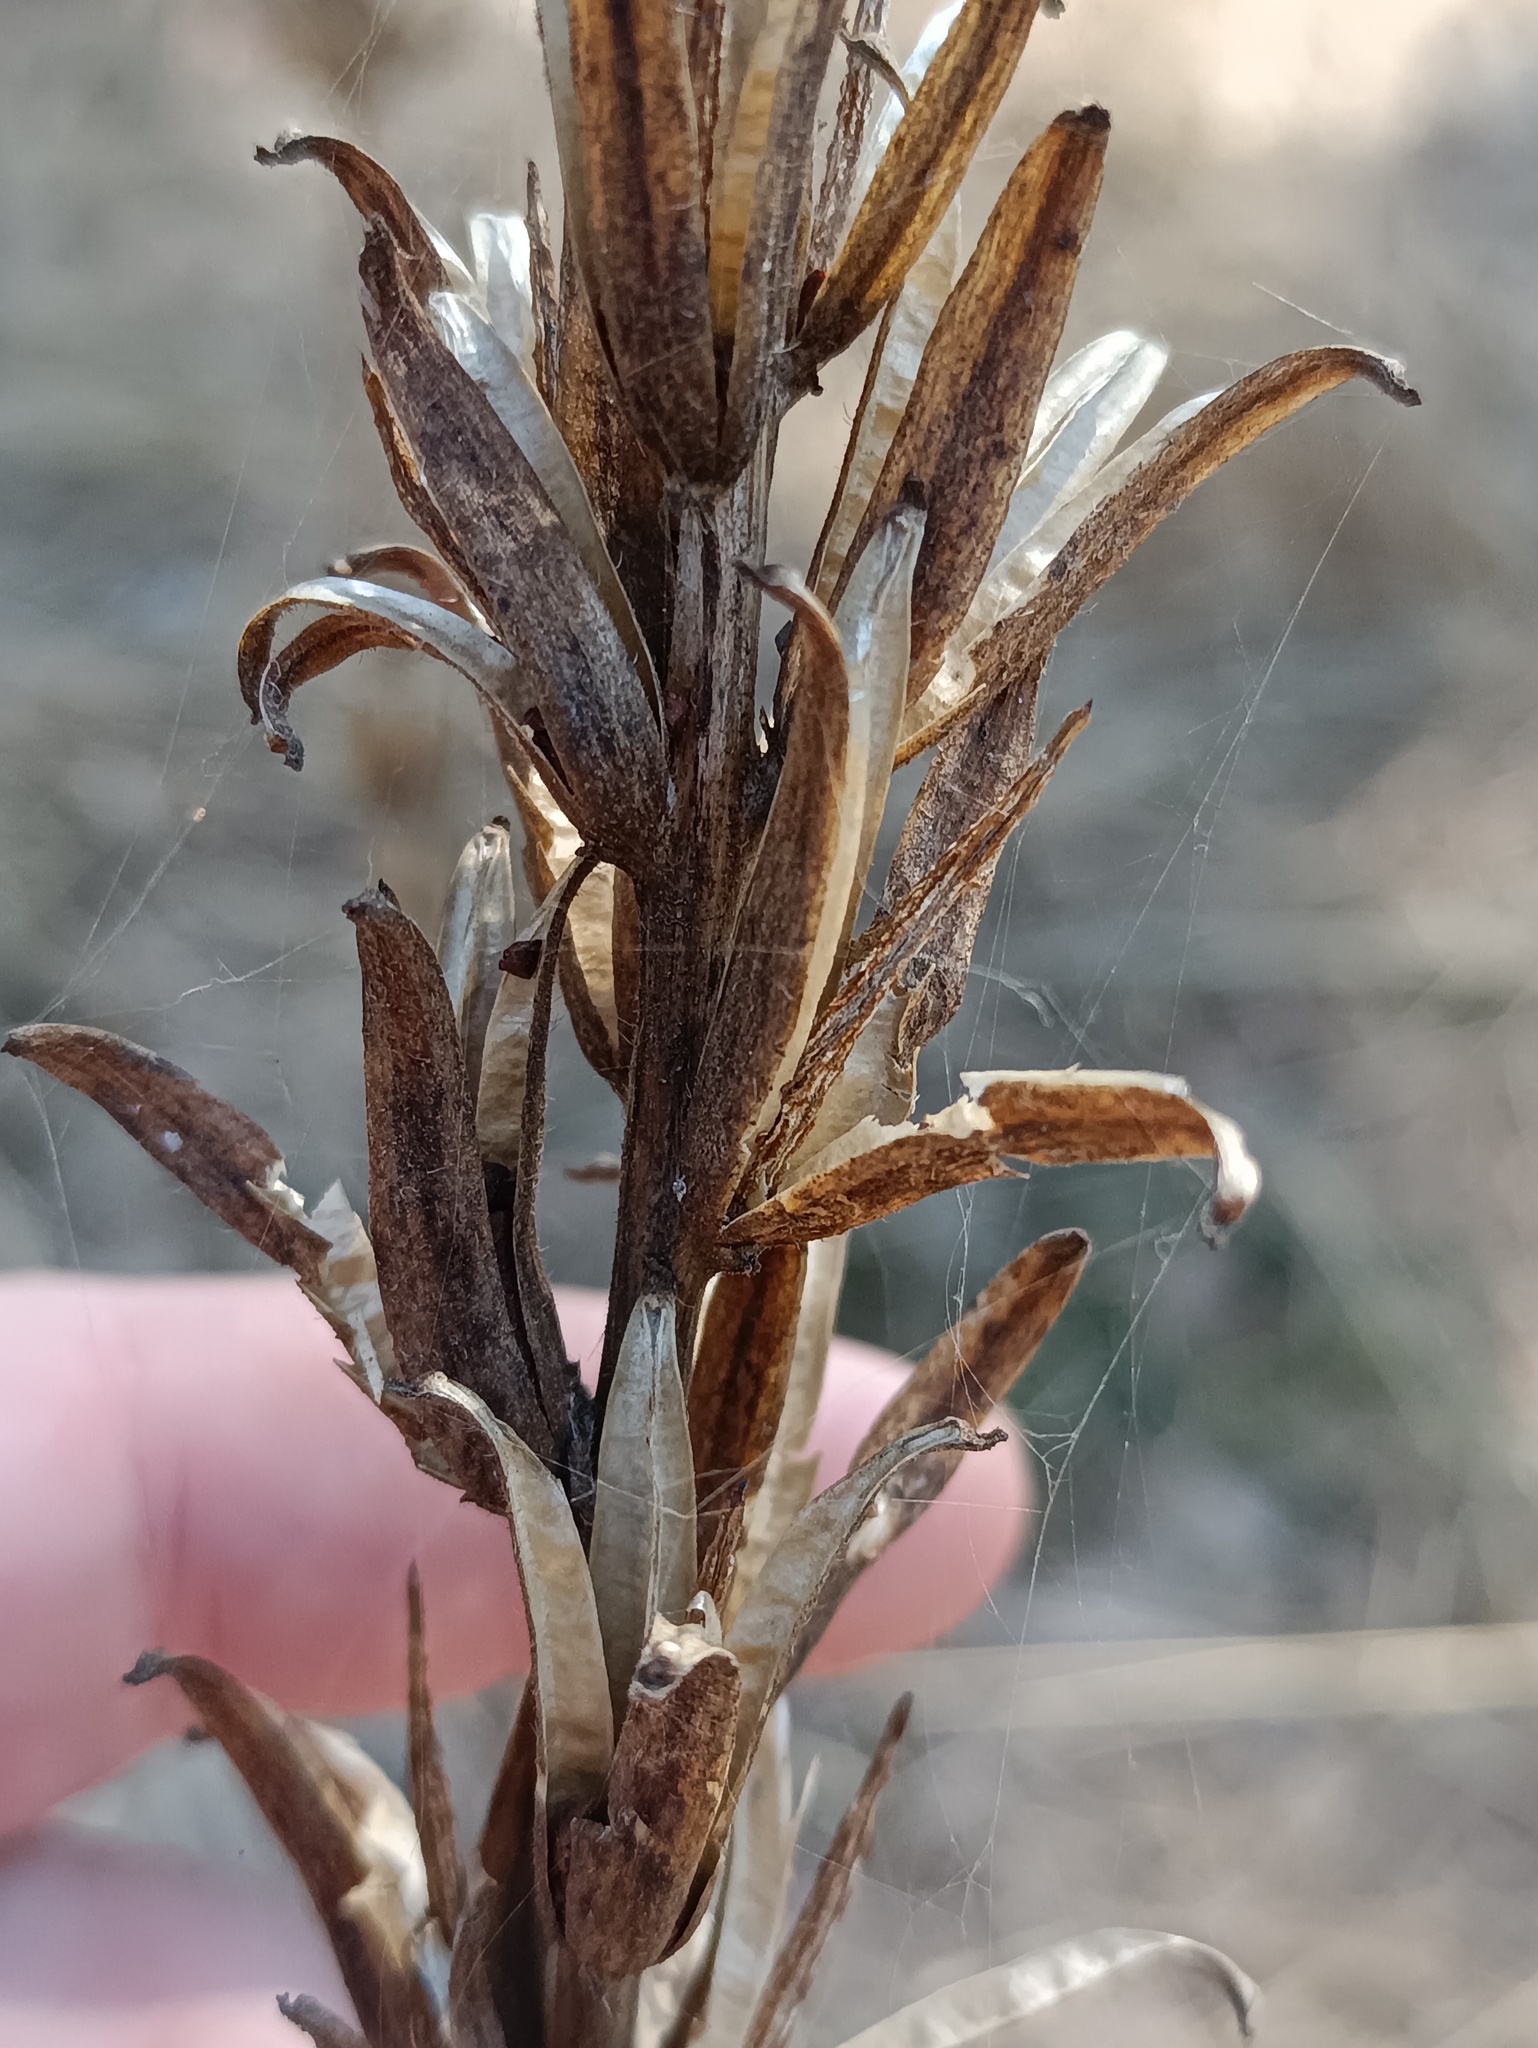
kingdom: Plantae
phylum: Tracheophyta
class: Magnoliopsida
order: Myrtales
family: Onagraceae
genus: Oenothera
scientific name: Oenothera
